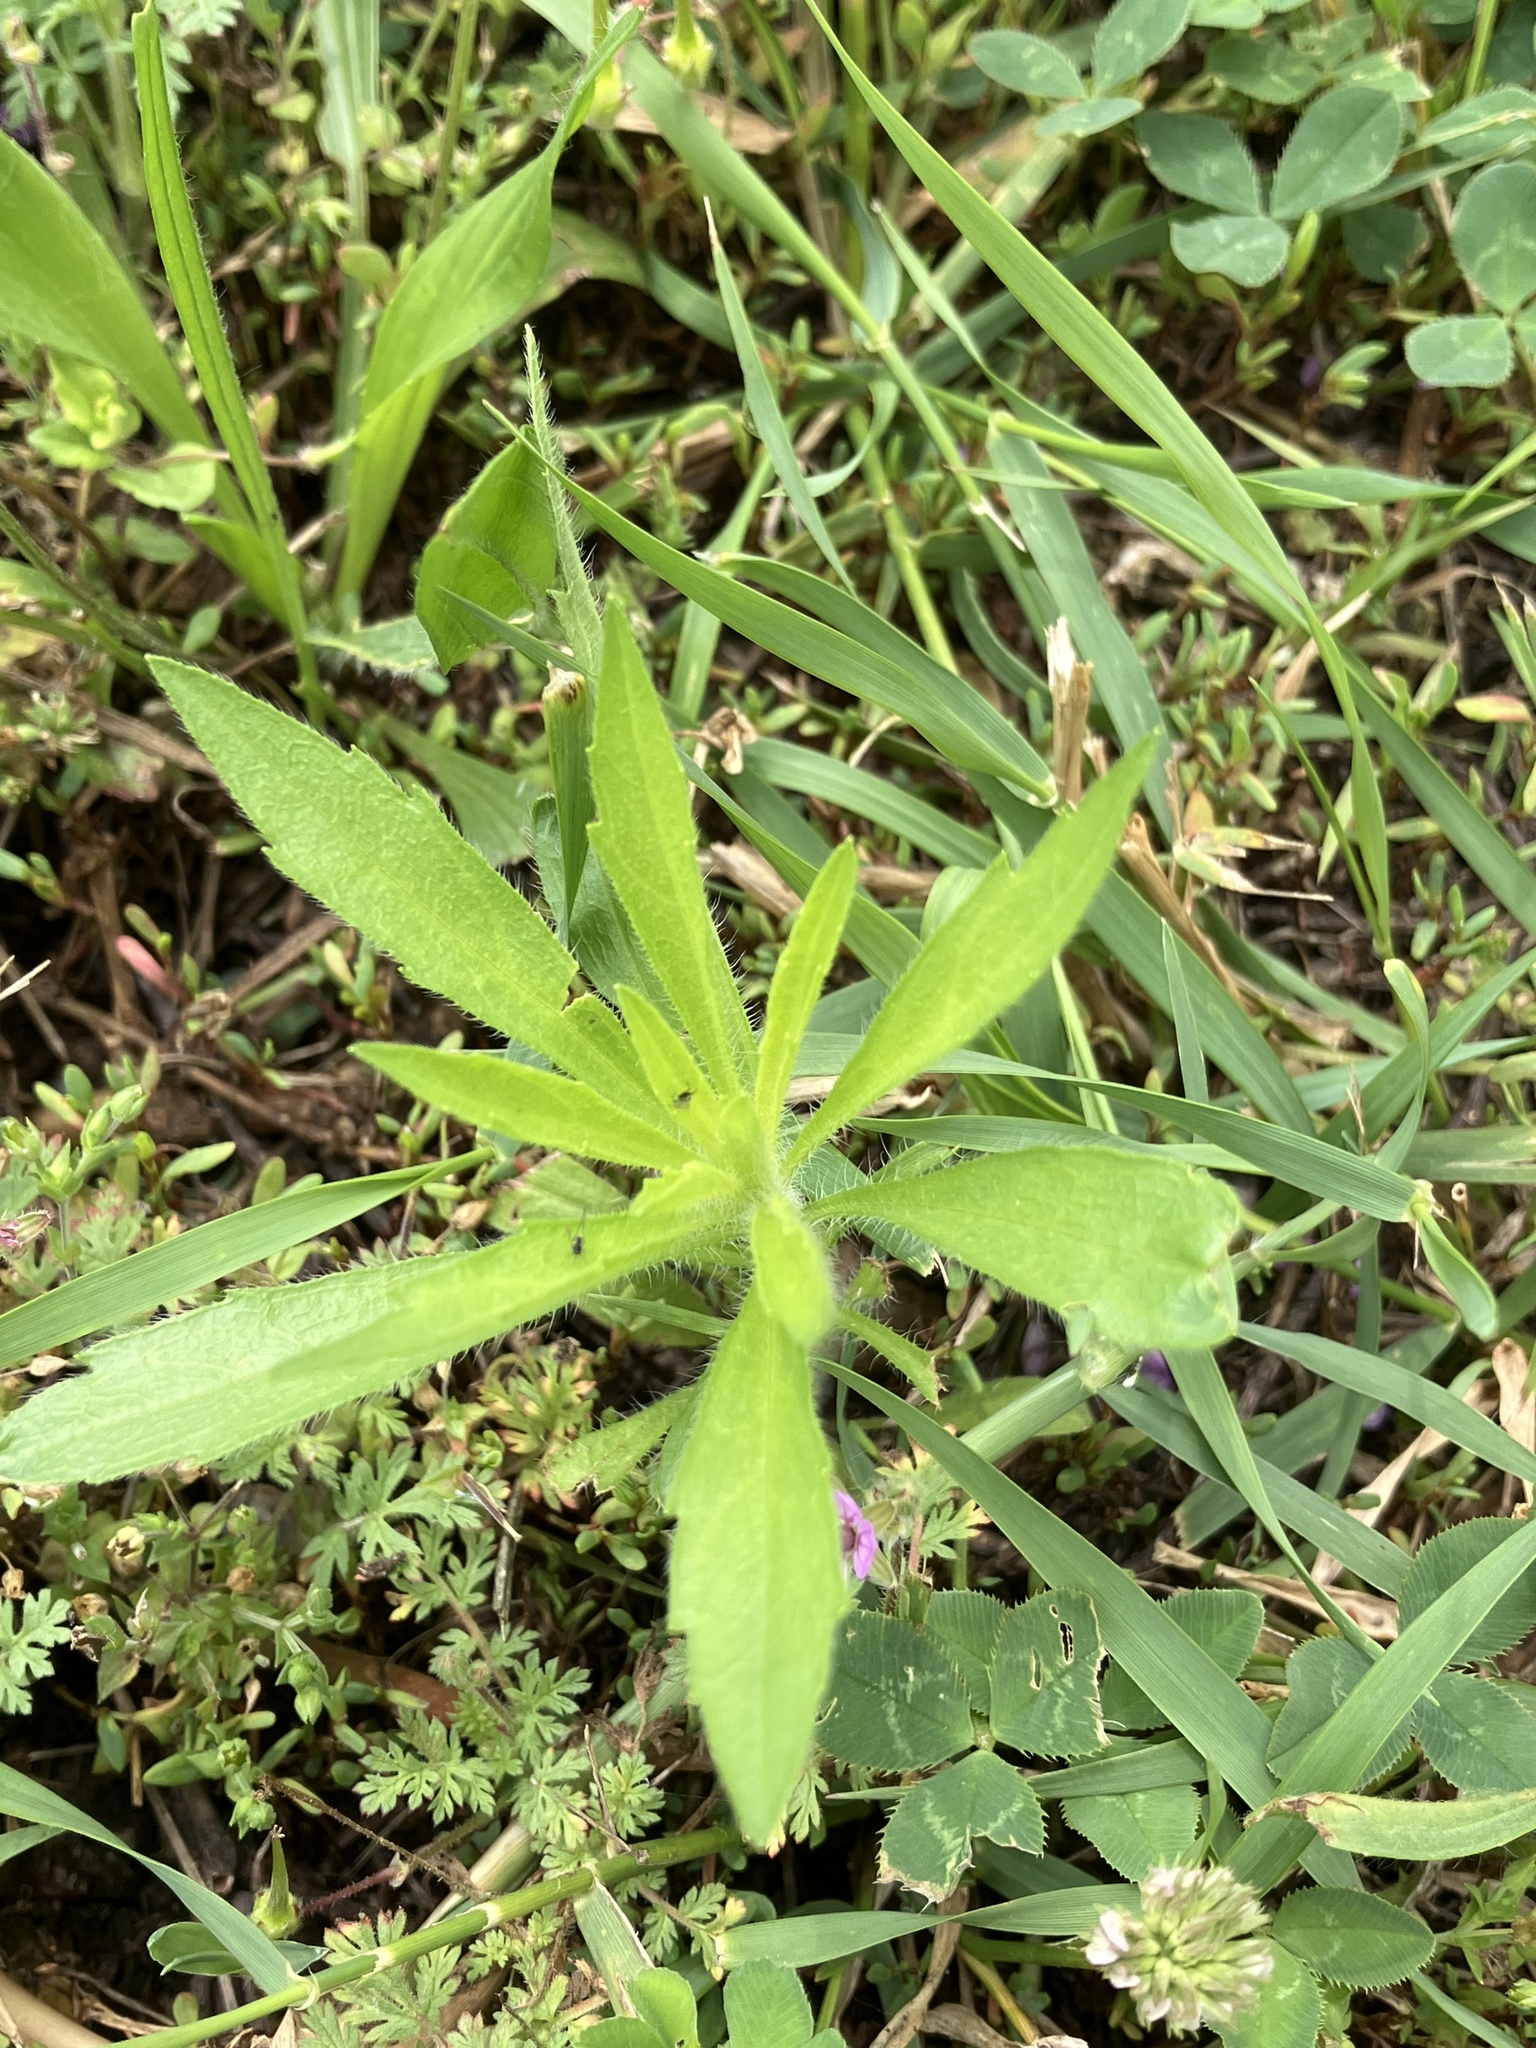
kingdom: Plantae
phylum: Tracheophyta
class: Magnoliopsida
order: Asterales
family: Asteraceae
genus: Erigeron
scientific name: Erigeron canadensis
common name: Canadian fleabane
